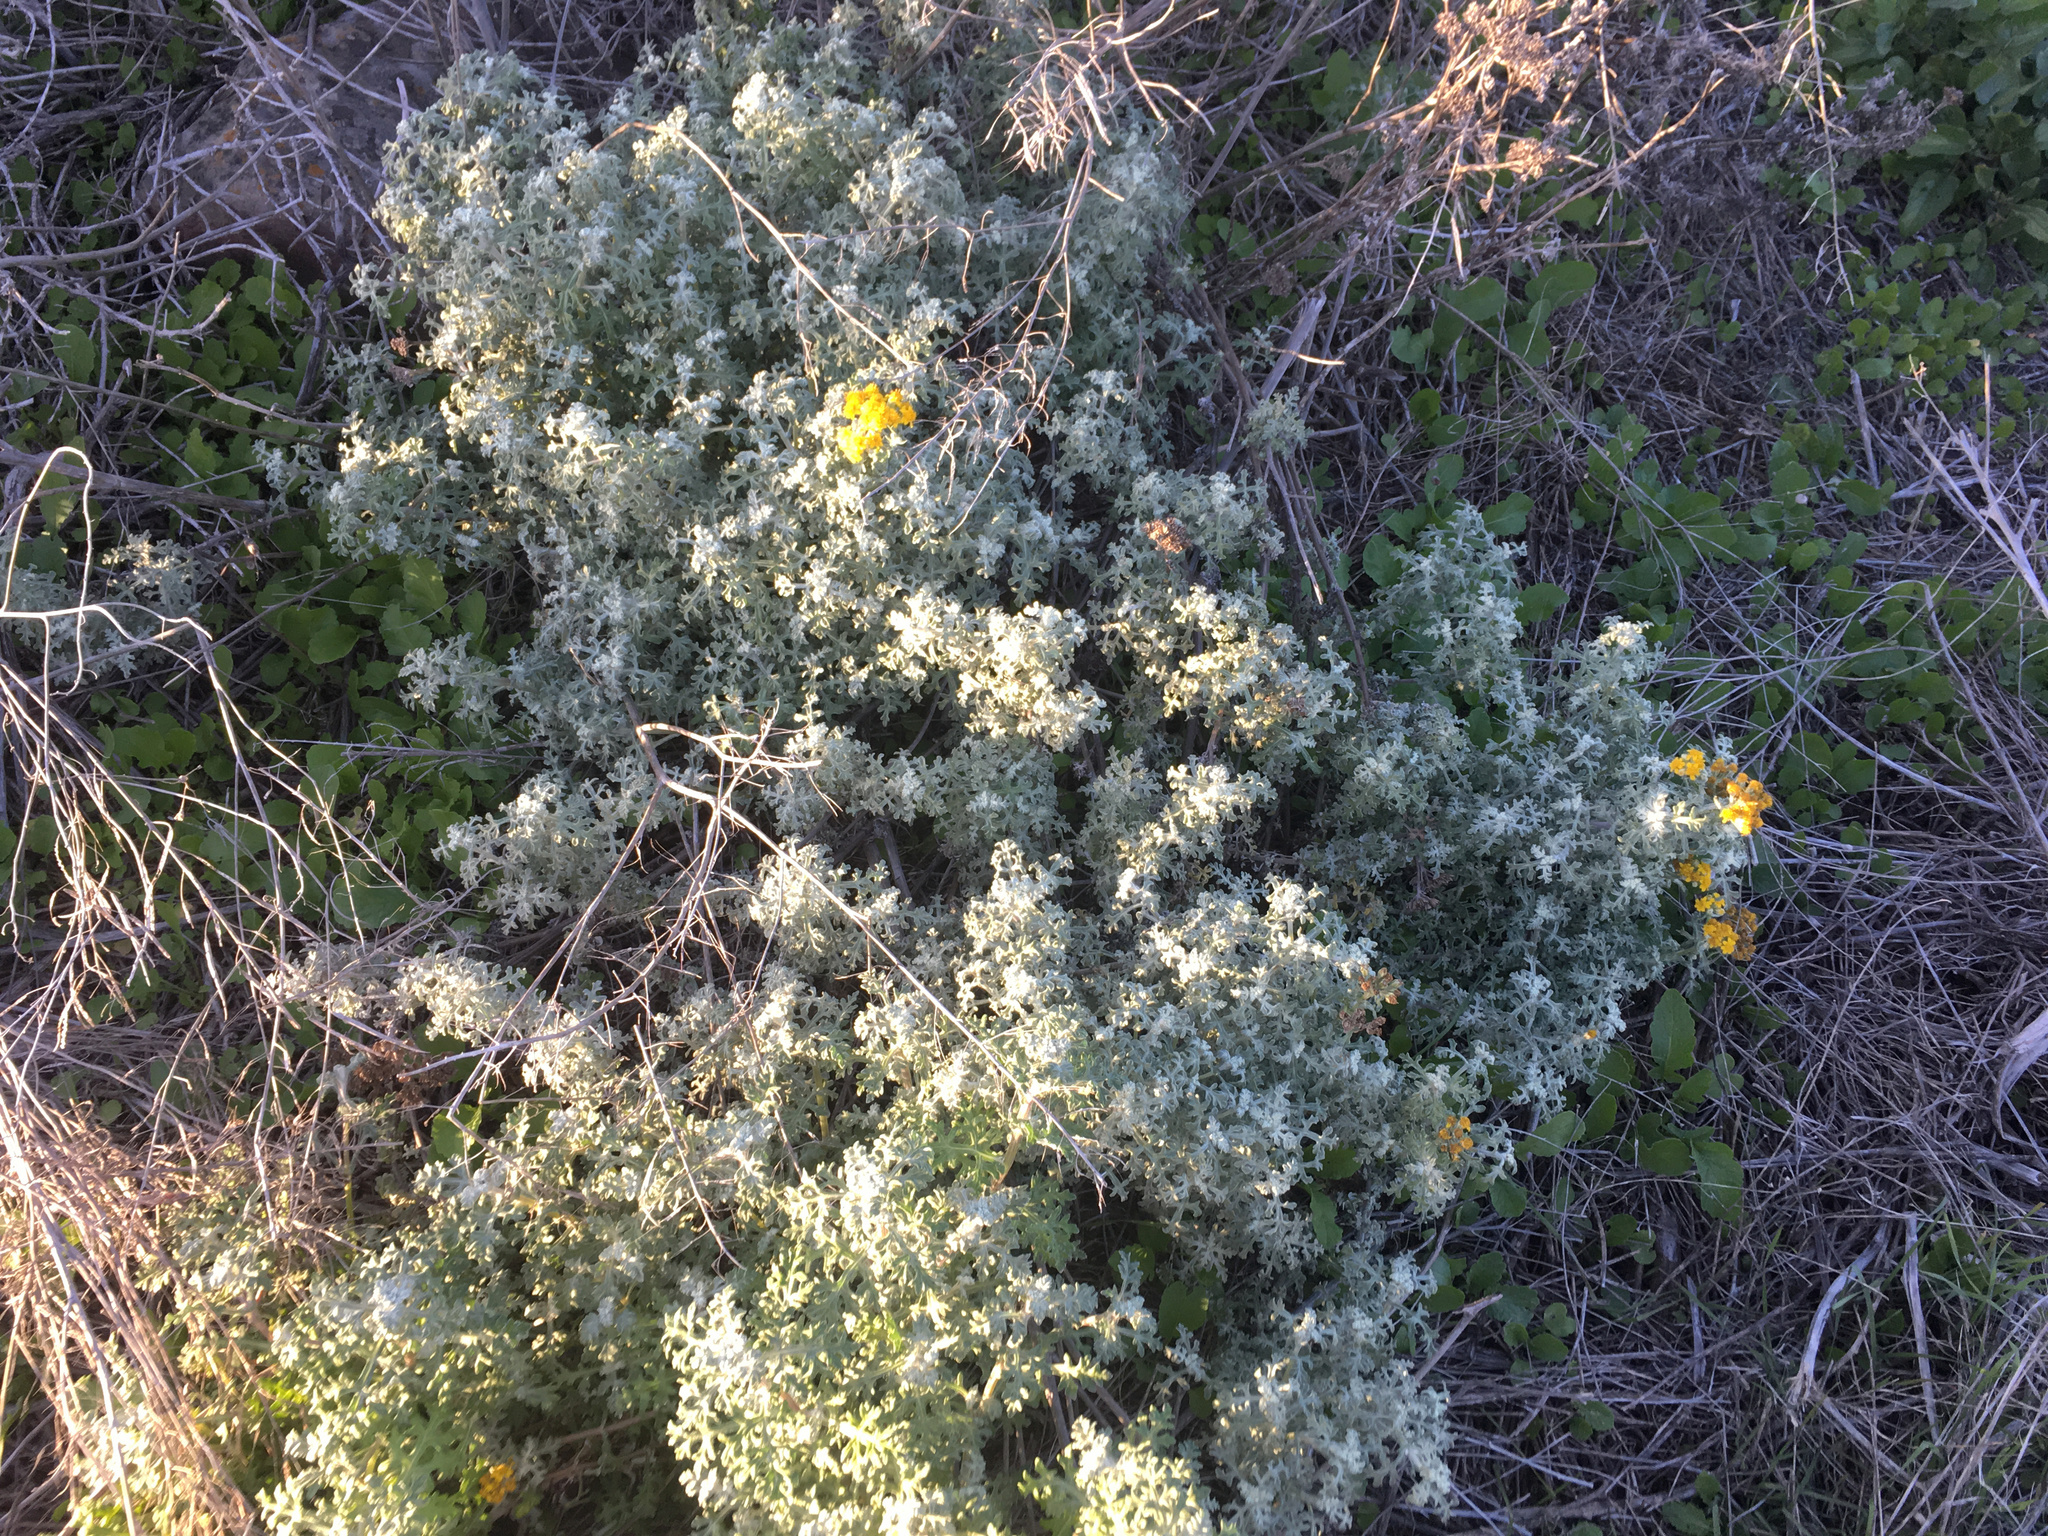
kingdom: Plantae
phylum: Tracheophyta
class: Magnoliopsida
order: Asterales
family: Asteraceae
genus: Eriophyllum
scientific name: Eriophyllum staechadifolium
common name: Lizardtail
